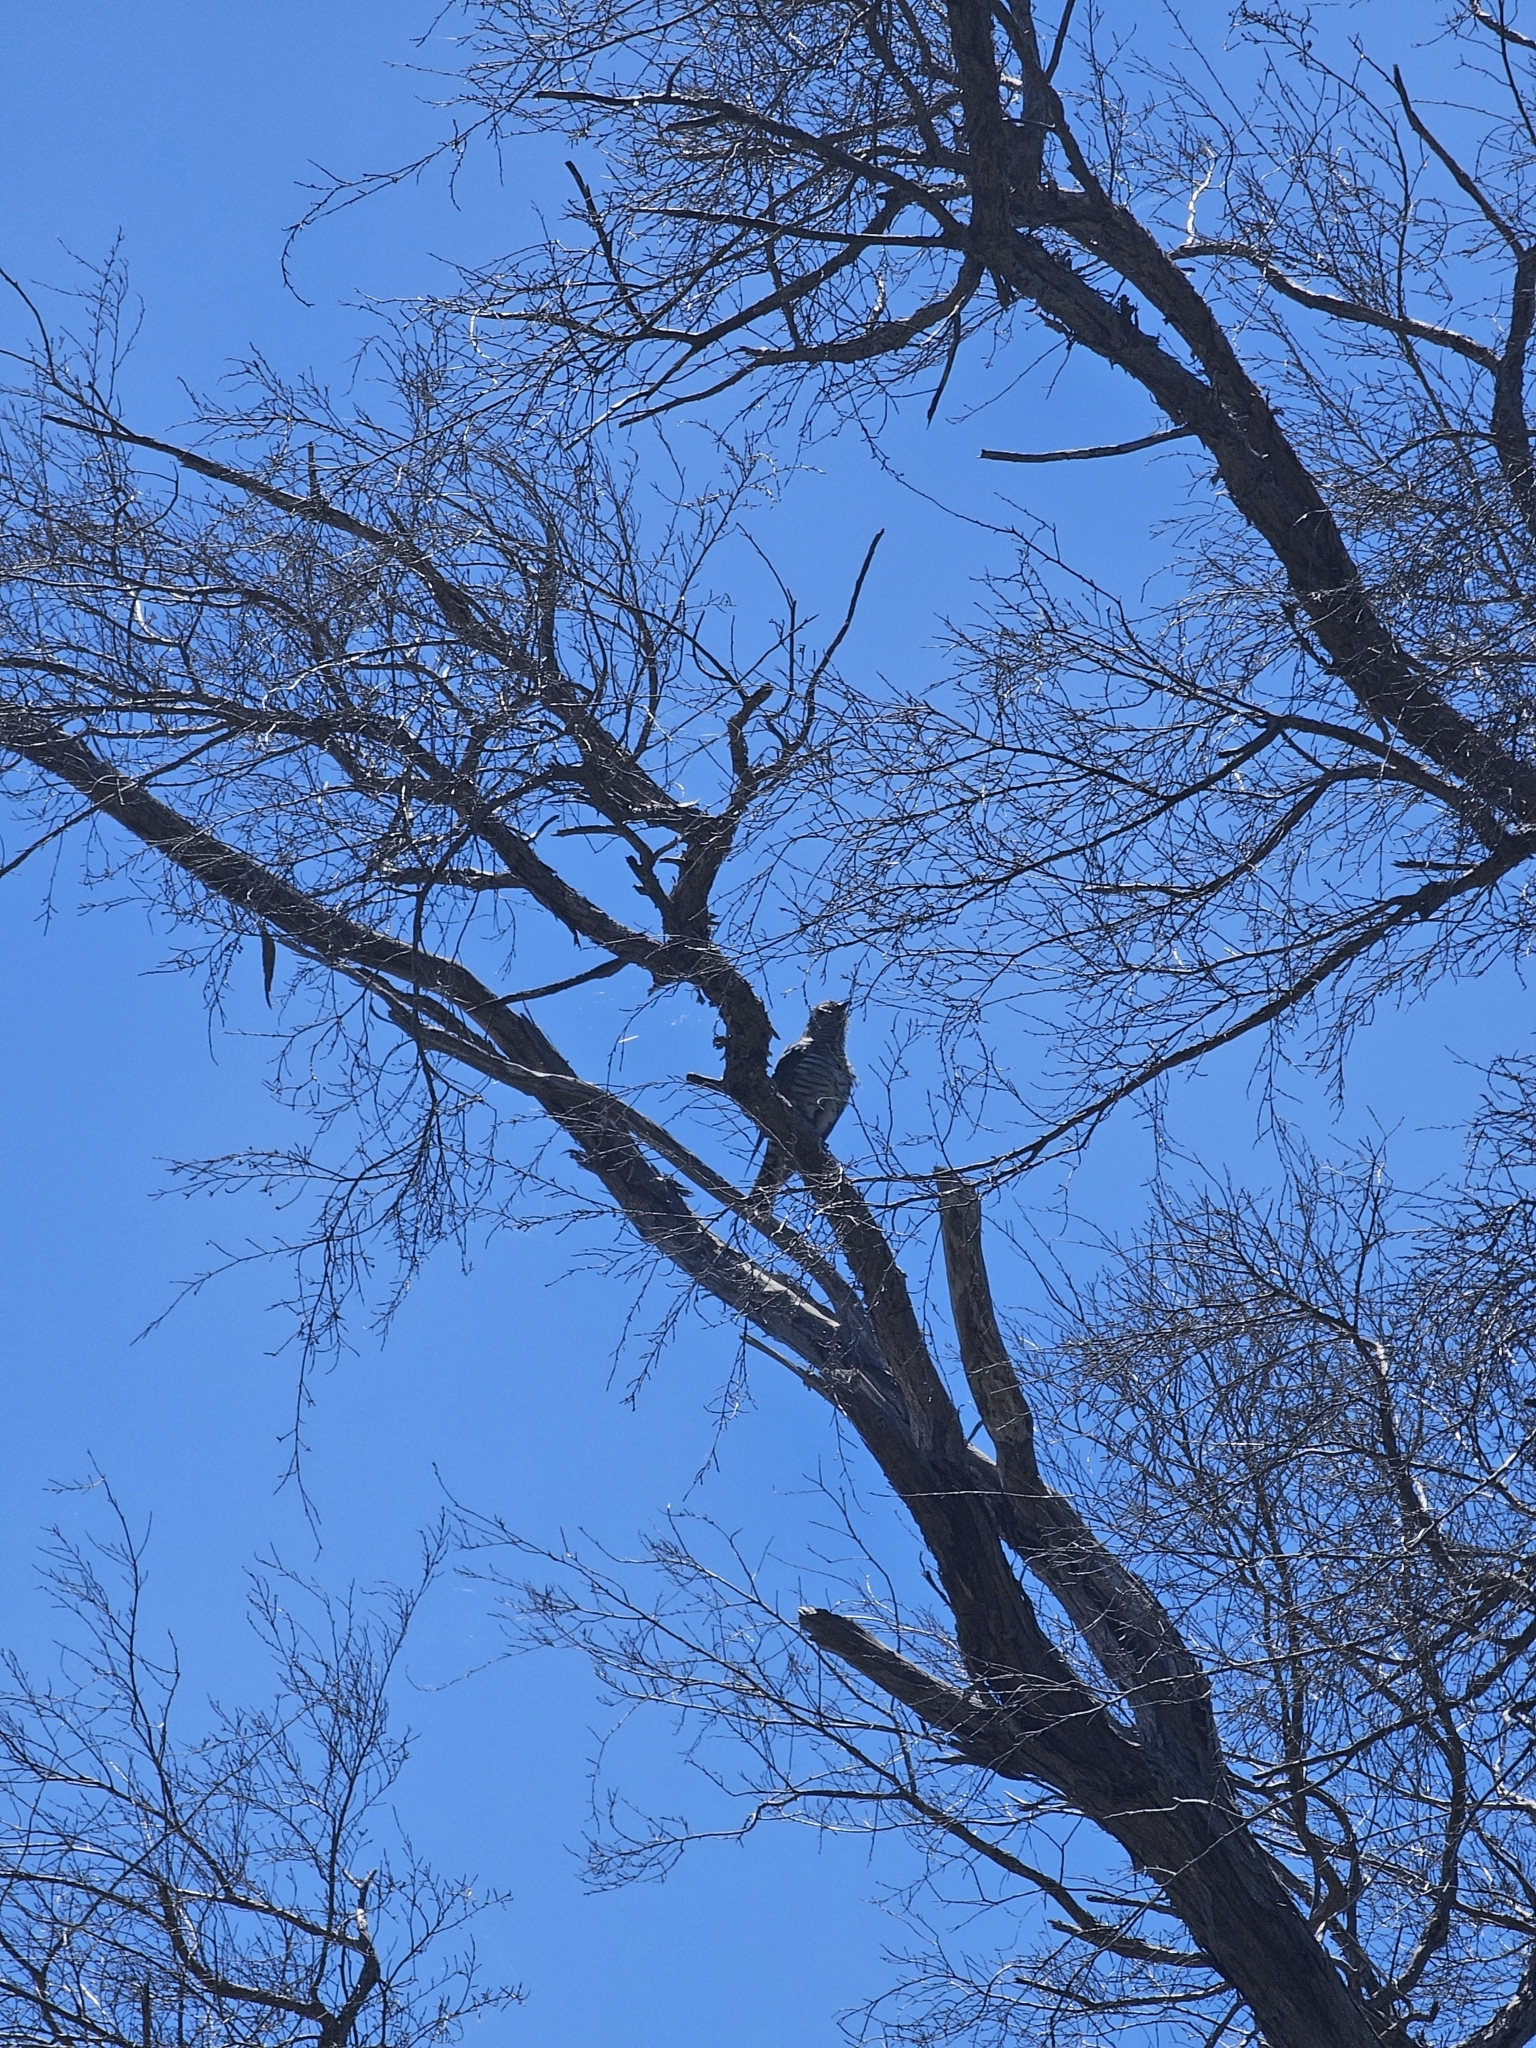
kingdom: Animalia
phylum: Chordata
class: Aves
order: Cuculiformes
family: Cuculidae
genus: Chrysococcyx
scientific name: Chrysococcyx lucidus
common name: Shining bronze cuckoo
